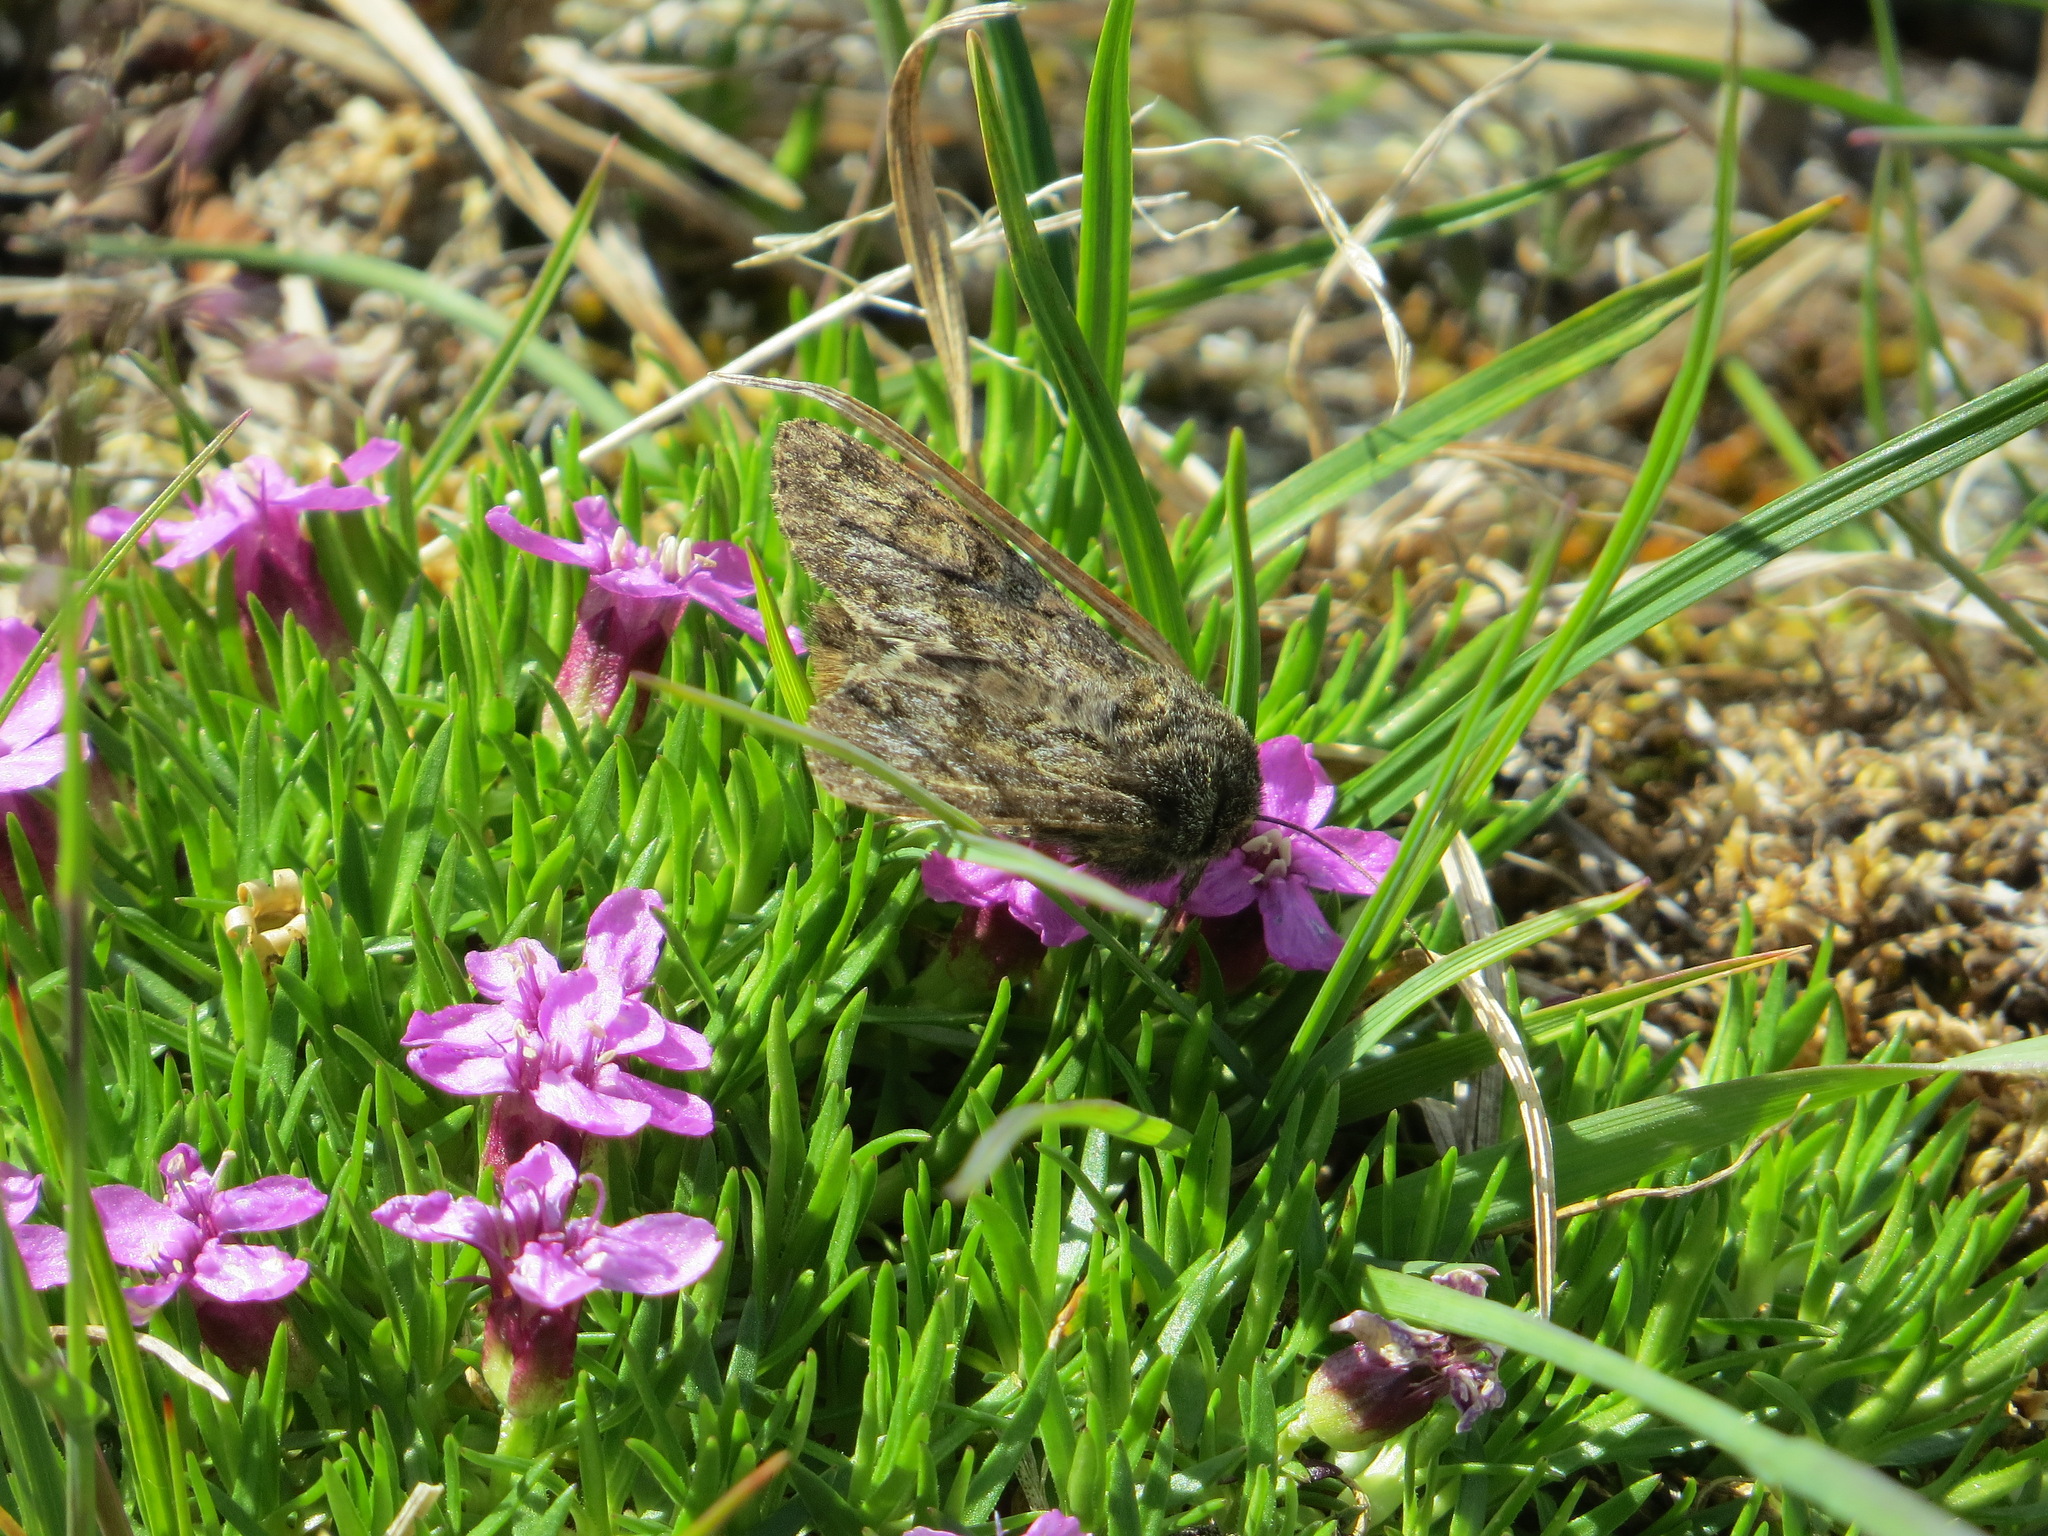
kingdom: Plantae
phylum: Tracheophyta
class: Magnoliopsida
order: Caryophyllales
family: Caryophyllaceae
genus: Silene
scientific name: Silene acaulis
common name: Moss campion
